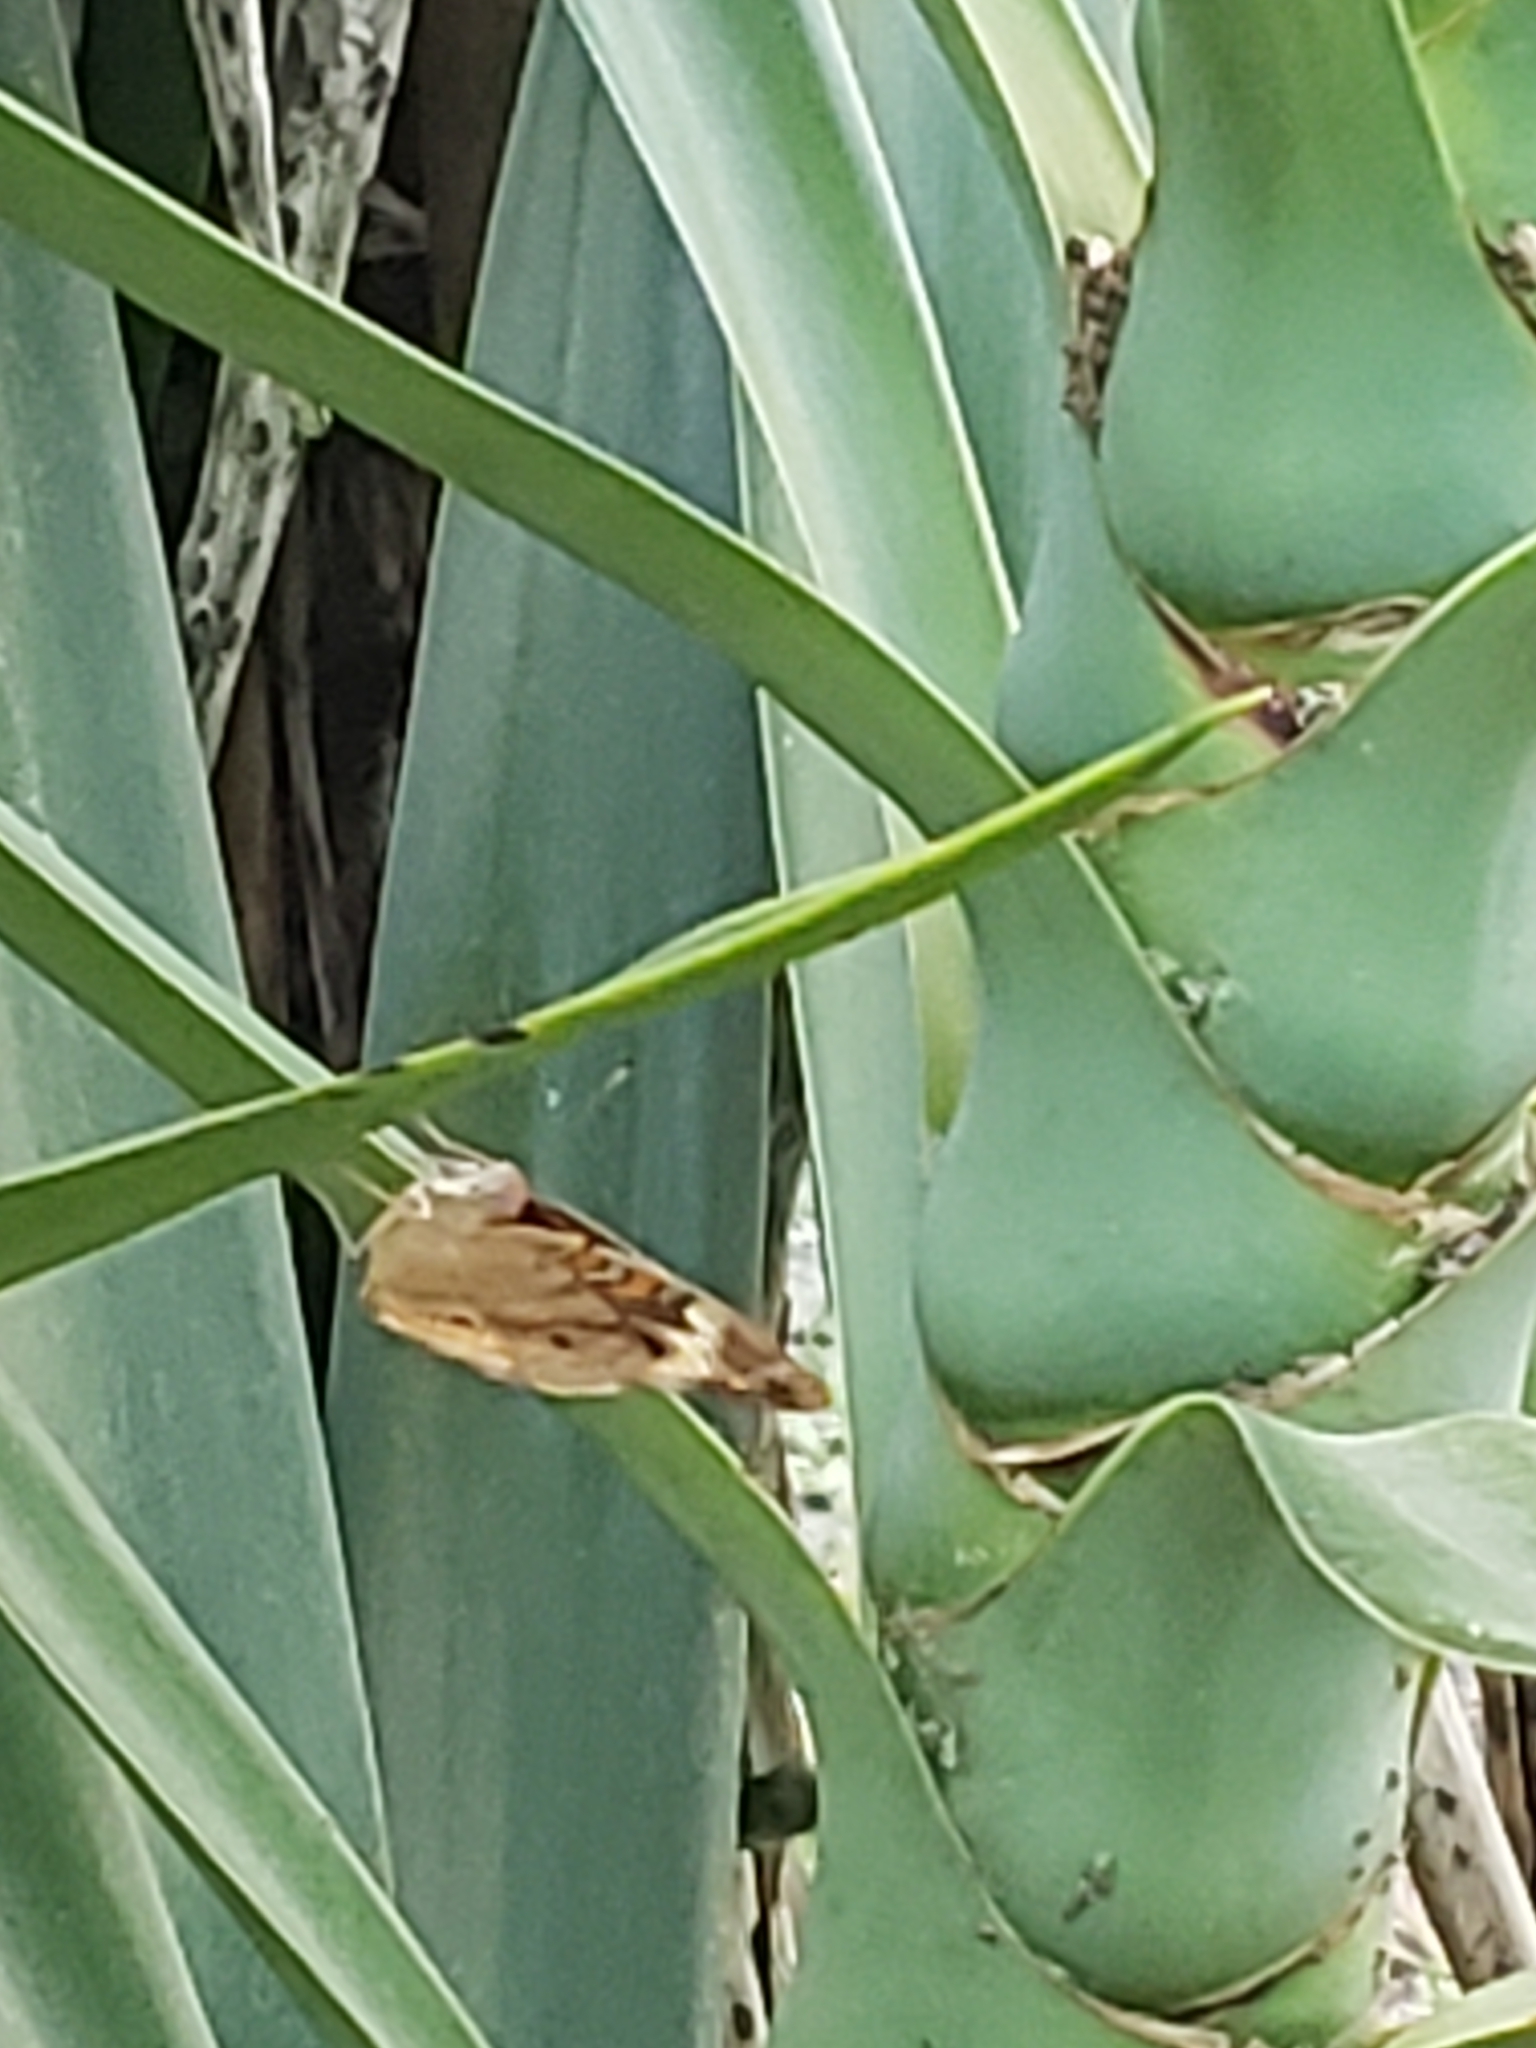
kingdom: Animalia
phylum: Arthropoda
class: Insecta
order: Lepidoptera
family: Nymphalidae
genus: Junonia
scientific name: Junonia coenia
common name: Common buckeye
